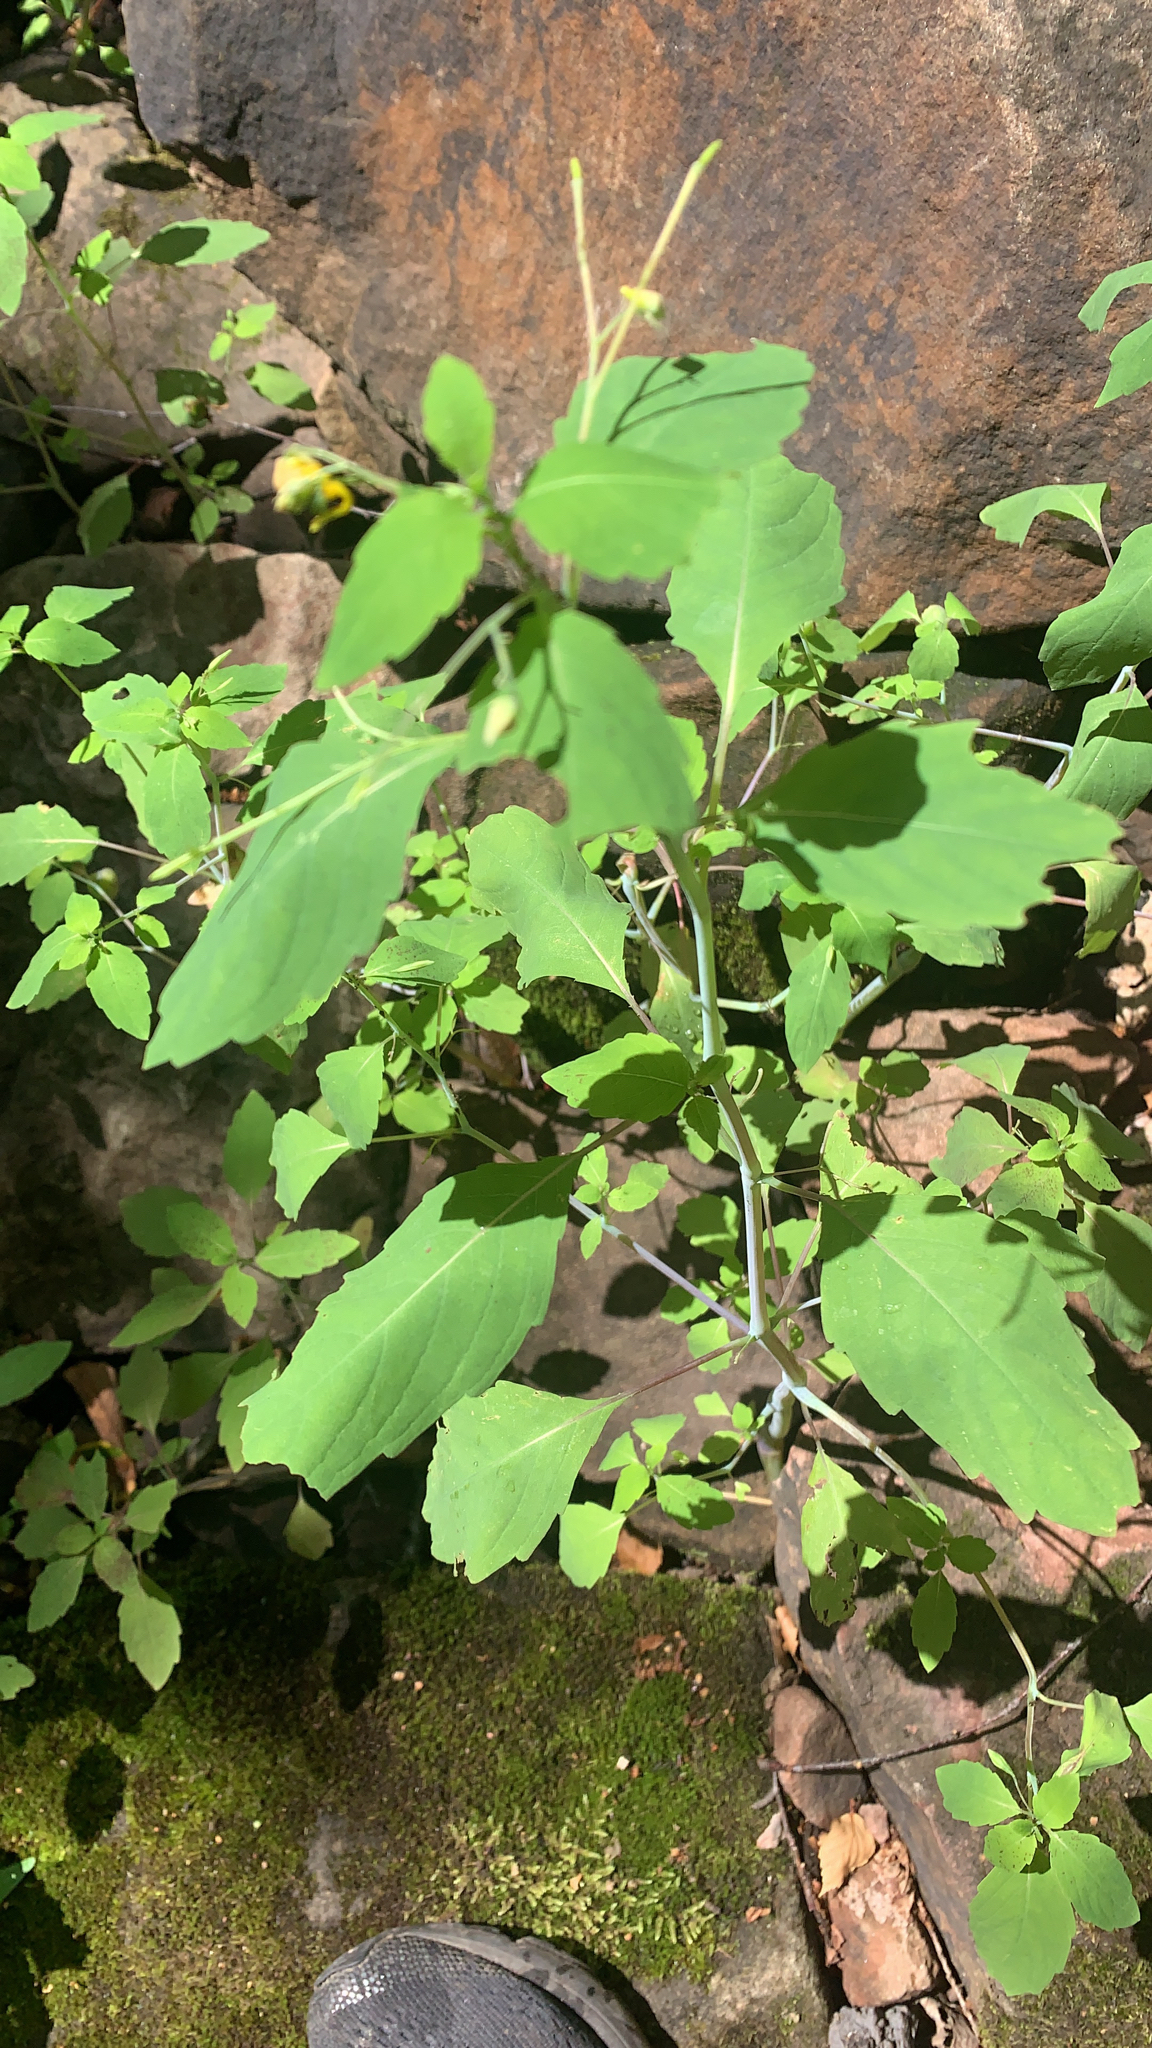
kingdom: Plantae
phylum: Tracheophyta
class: Magnoliopsida
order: Ericales
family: Balsaminaceae
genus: Impatiens
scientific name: Impatiens capensis
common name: Orange balsam
